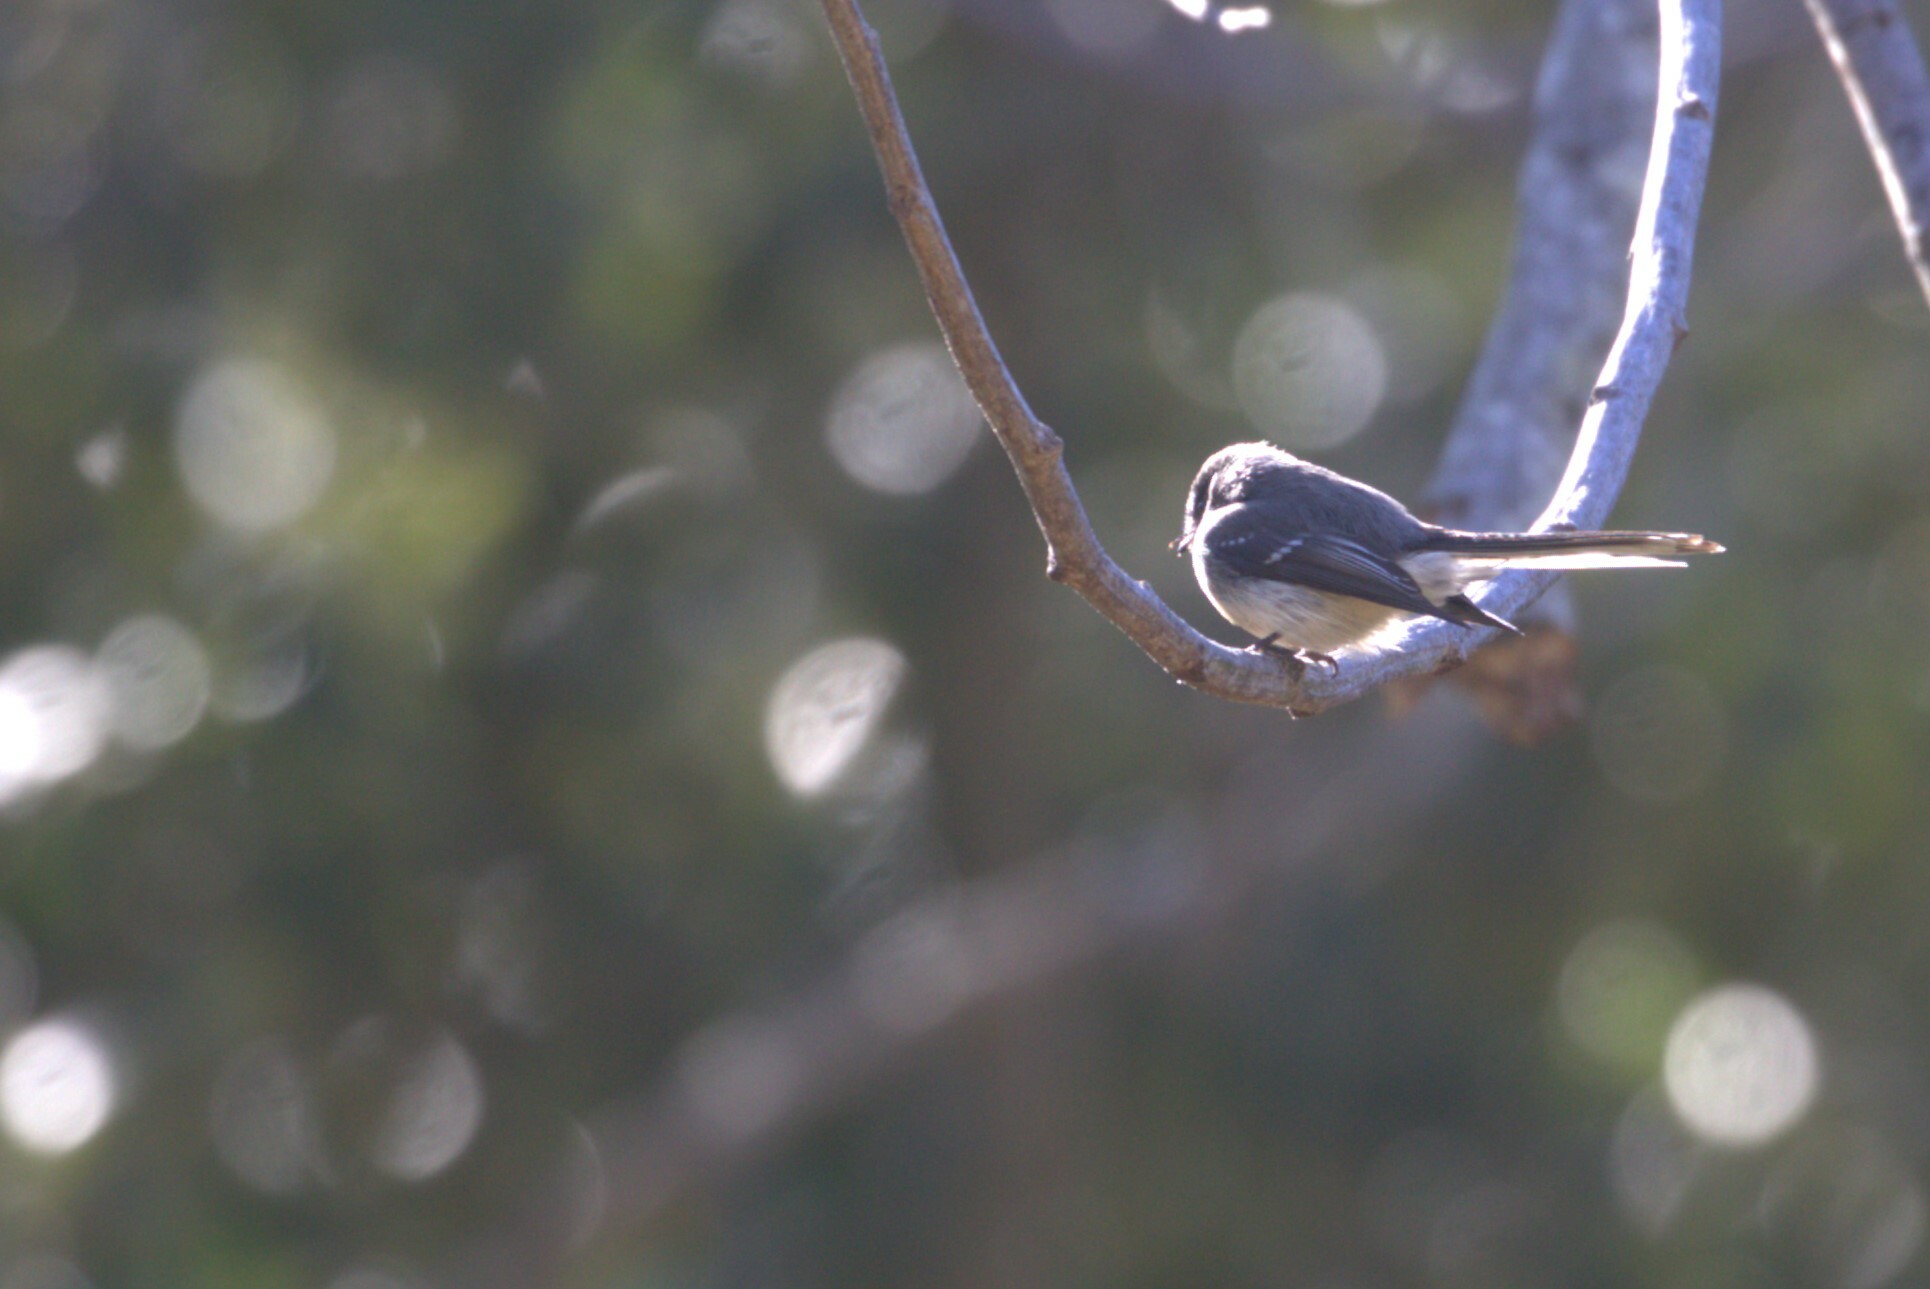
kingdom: Animalia
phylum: Chordata
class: Aves
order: Passeriformes
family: Rhipiduridae
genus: Rhipidura
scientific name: Rhipidura albiscapa
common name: Grey fantail
